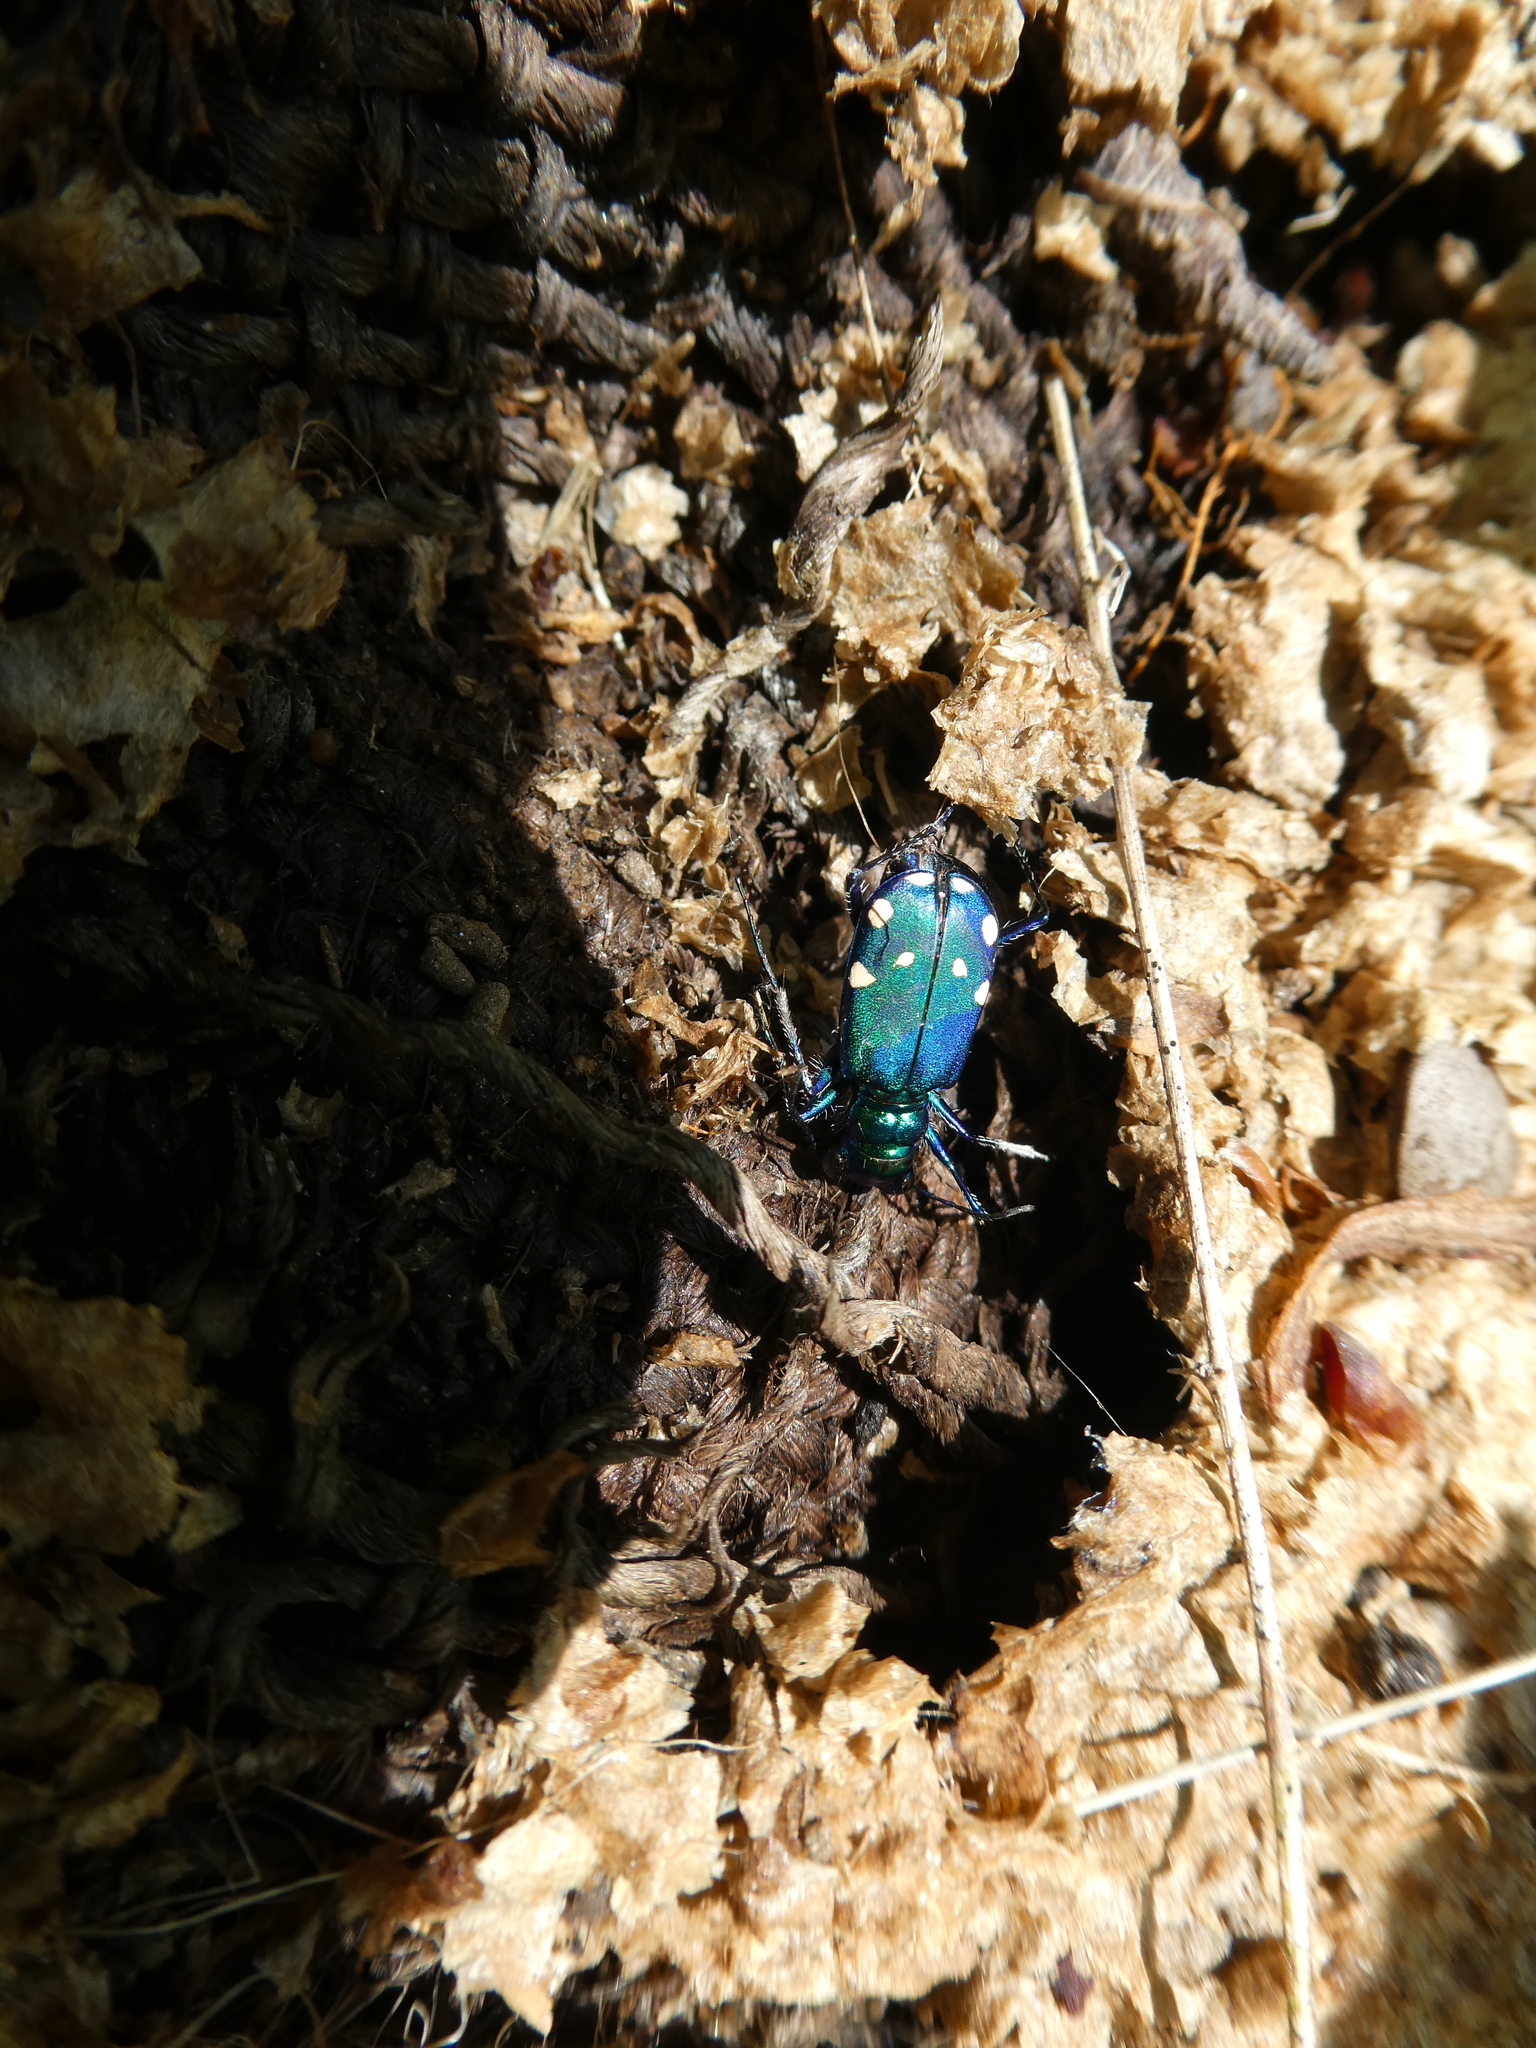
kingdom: Animalia
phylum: Arthropoda
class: Insecta
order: Coleoptera
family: Carabidae
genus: Cicindela
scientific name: Cicindela sexguttata
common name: Six-spotted tiger beetle
